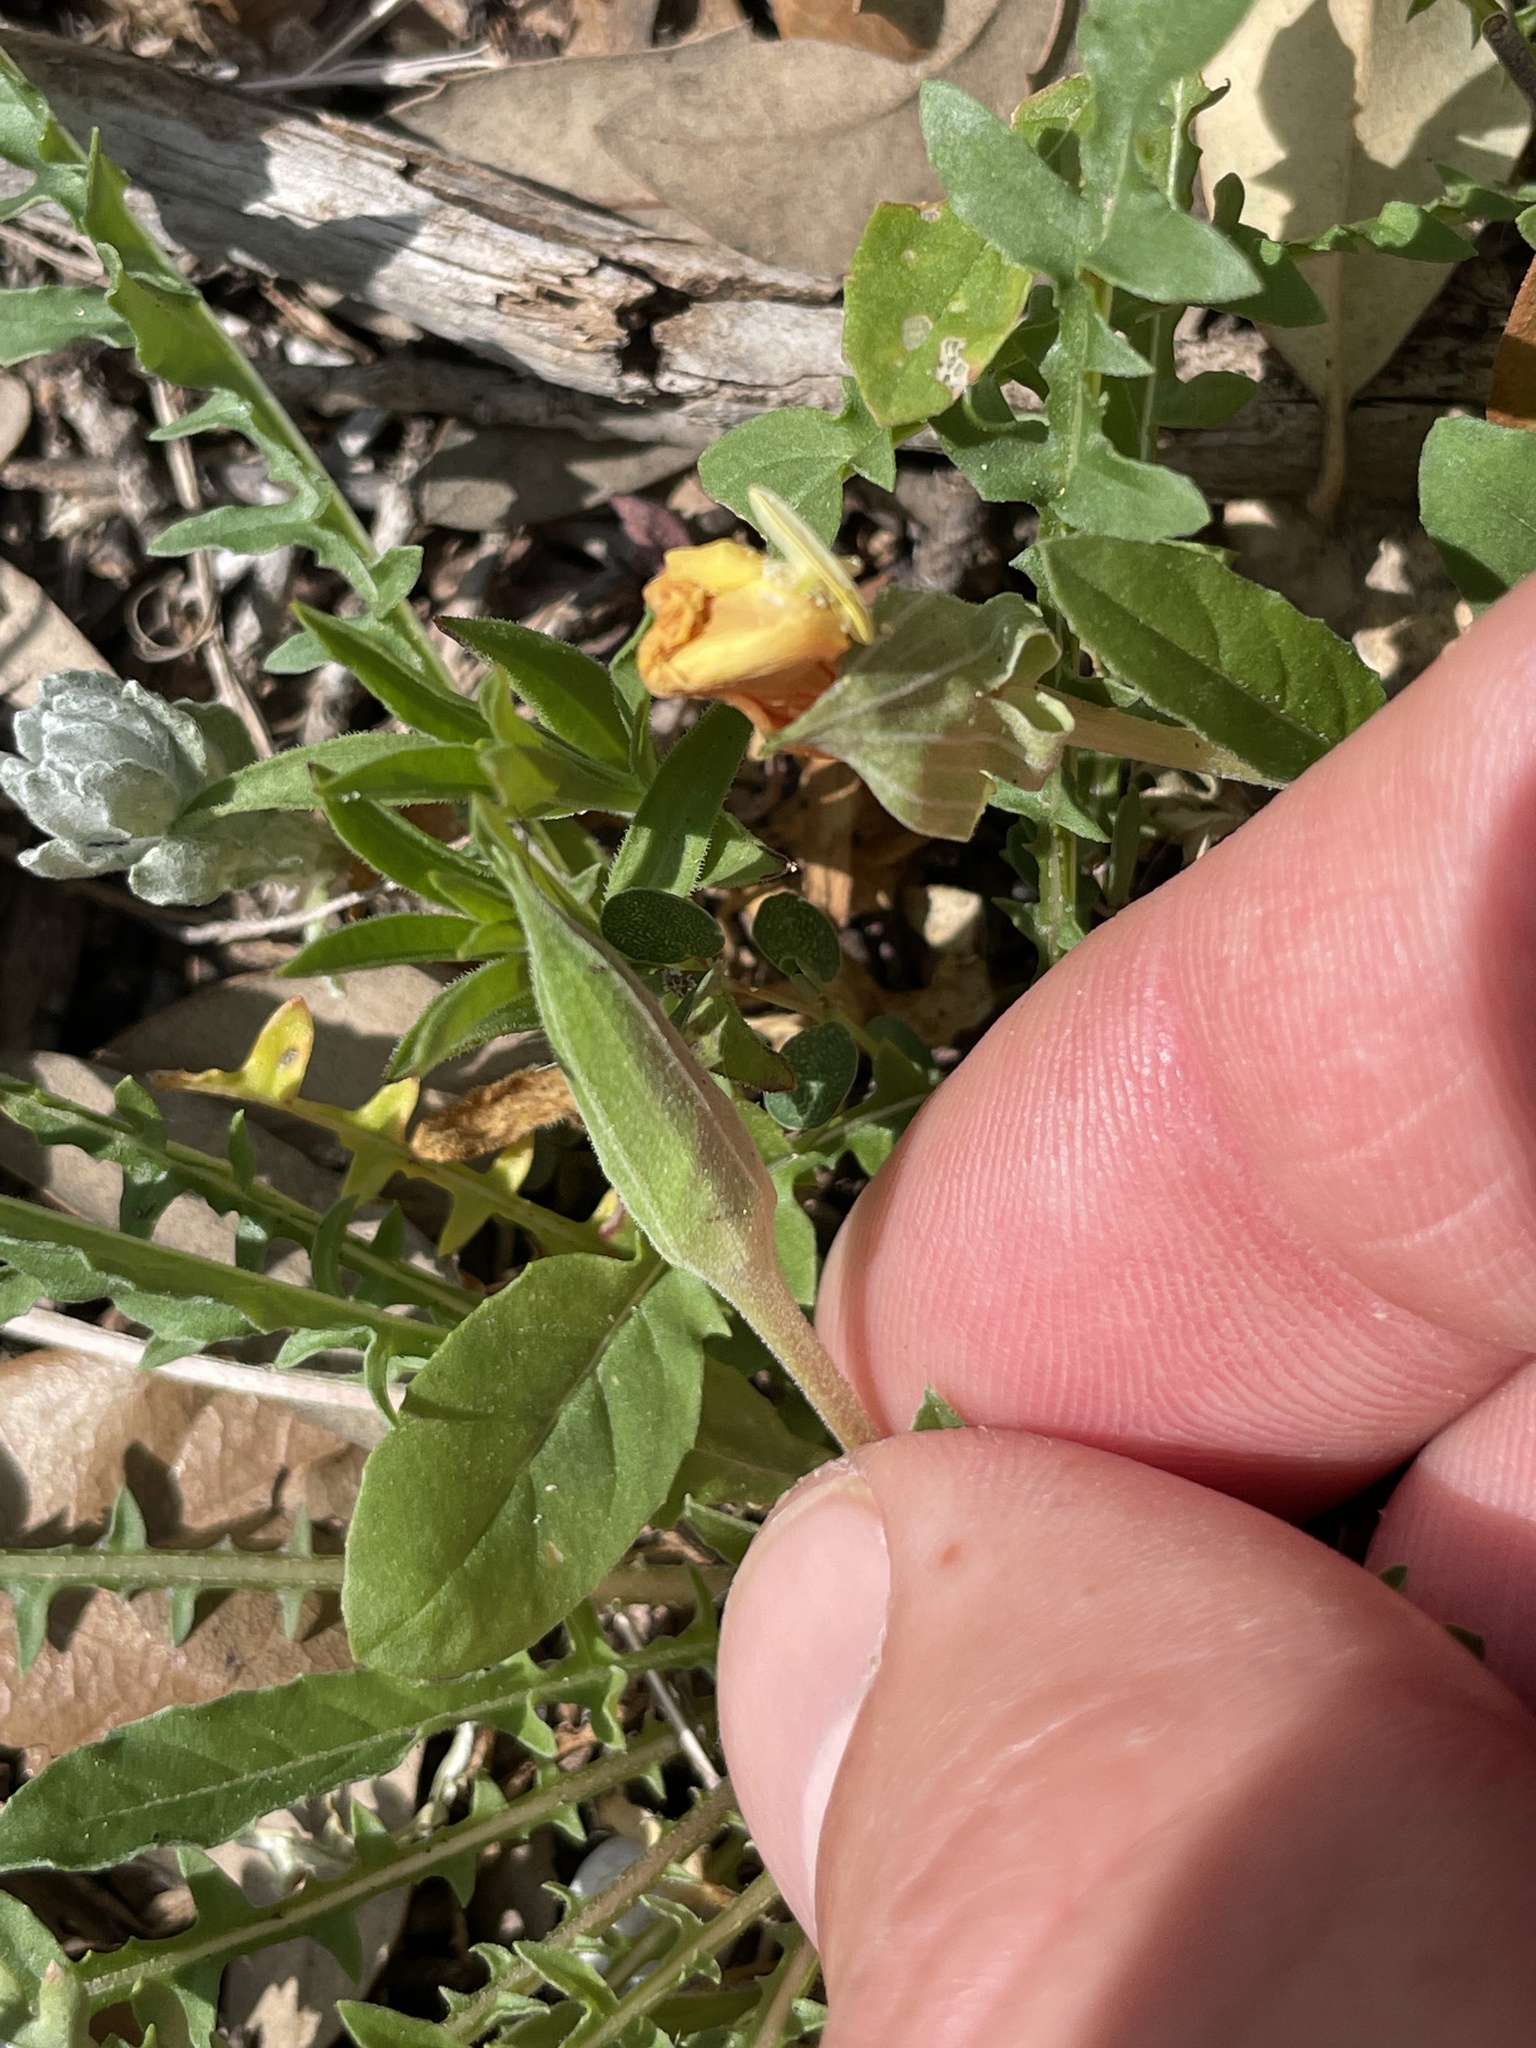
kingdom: Plantae
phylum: Tracheophyta
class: Magnoliopsida
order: Myrtales
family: Onagraceae
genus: Oenothera
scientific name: Oenothera triloba
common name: Sessile evening-primrose
